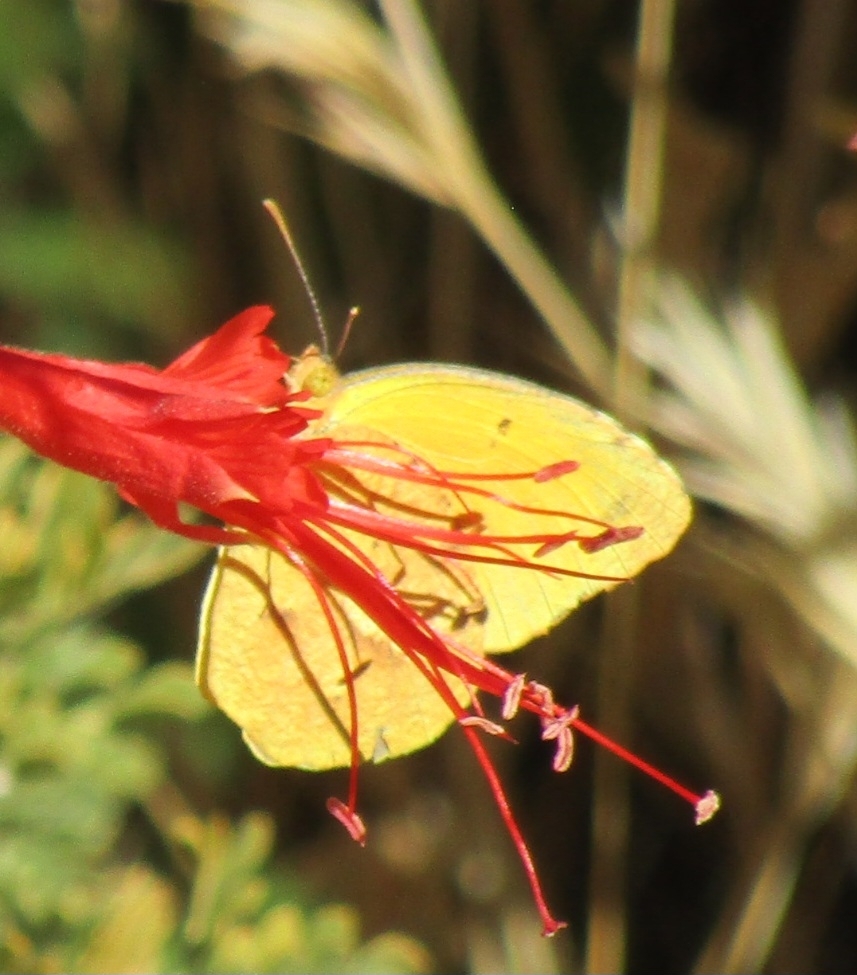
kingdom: Animalia
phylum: Arthropoda
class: Insecta
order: Lepidoptera
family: Pieridae
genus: Abaeis
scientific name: Abaeis nicippe
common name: Sleepy orange
